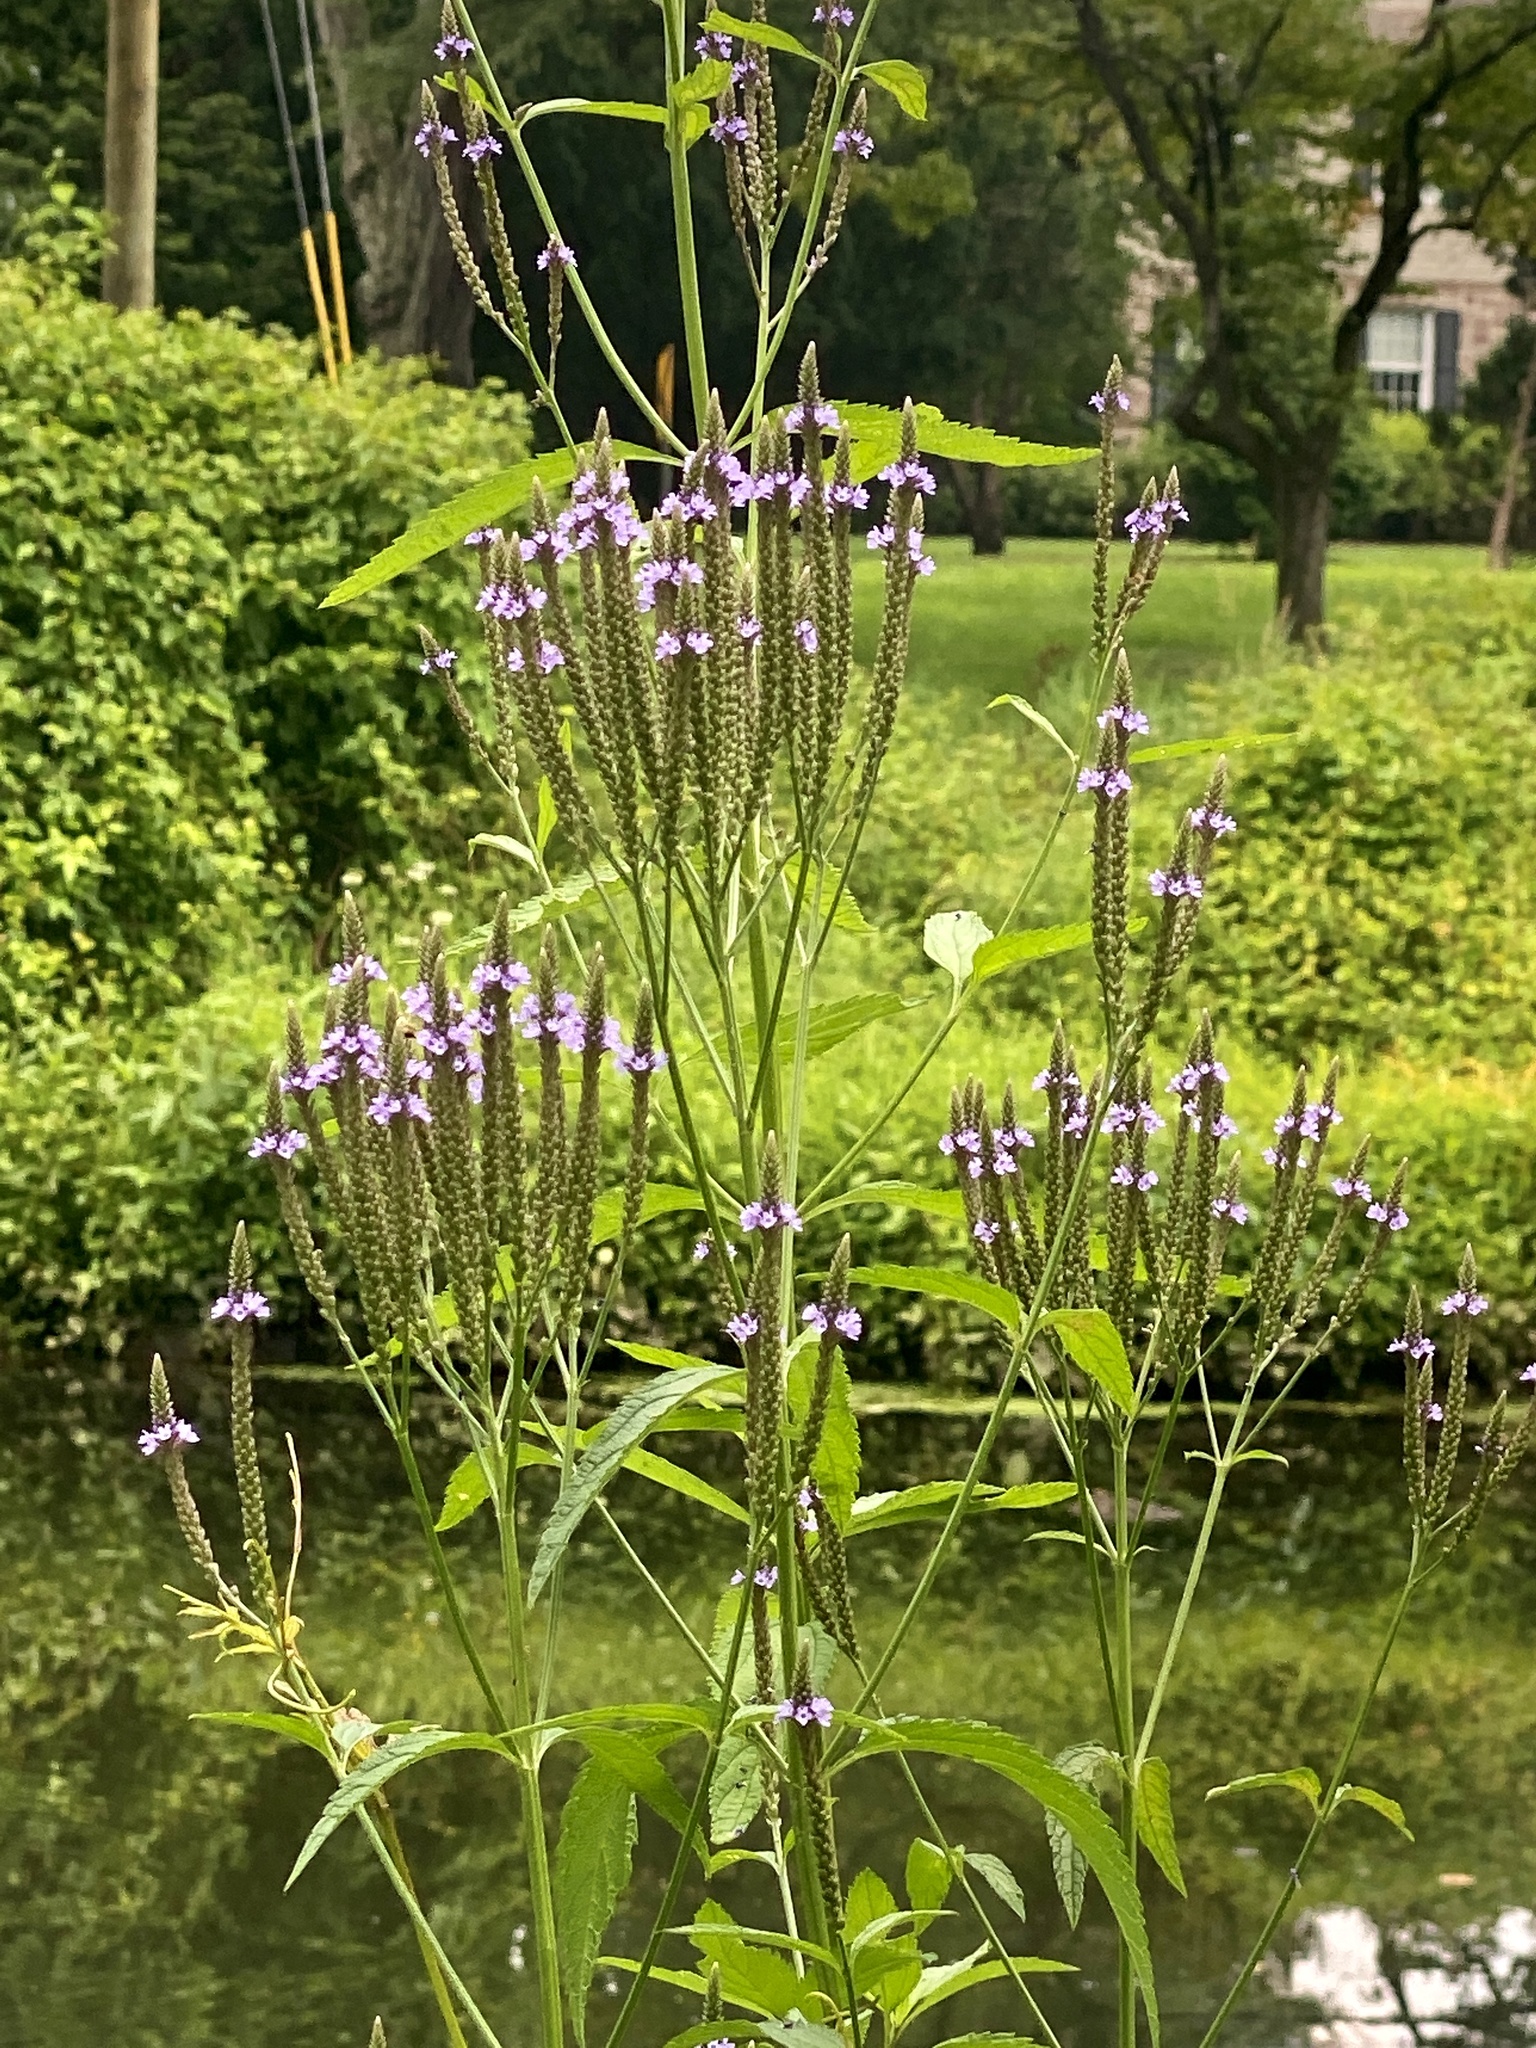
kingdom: Plantae
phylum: Tracheophyta
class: Magnoliopsida
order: Lamiales
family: Verbenaceae
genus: Verbena
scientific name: Verbena hastata
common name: American blue vervain
